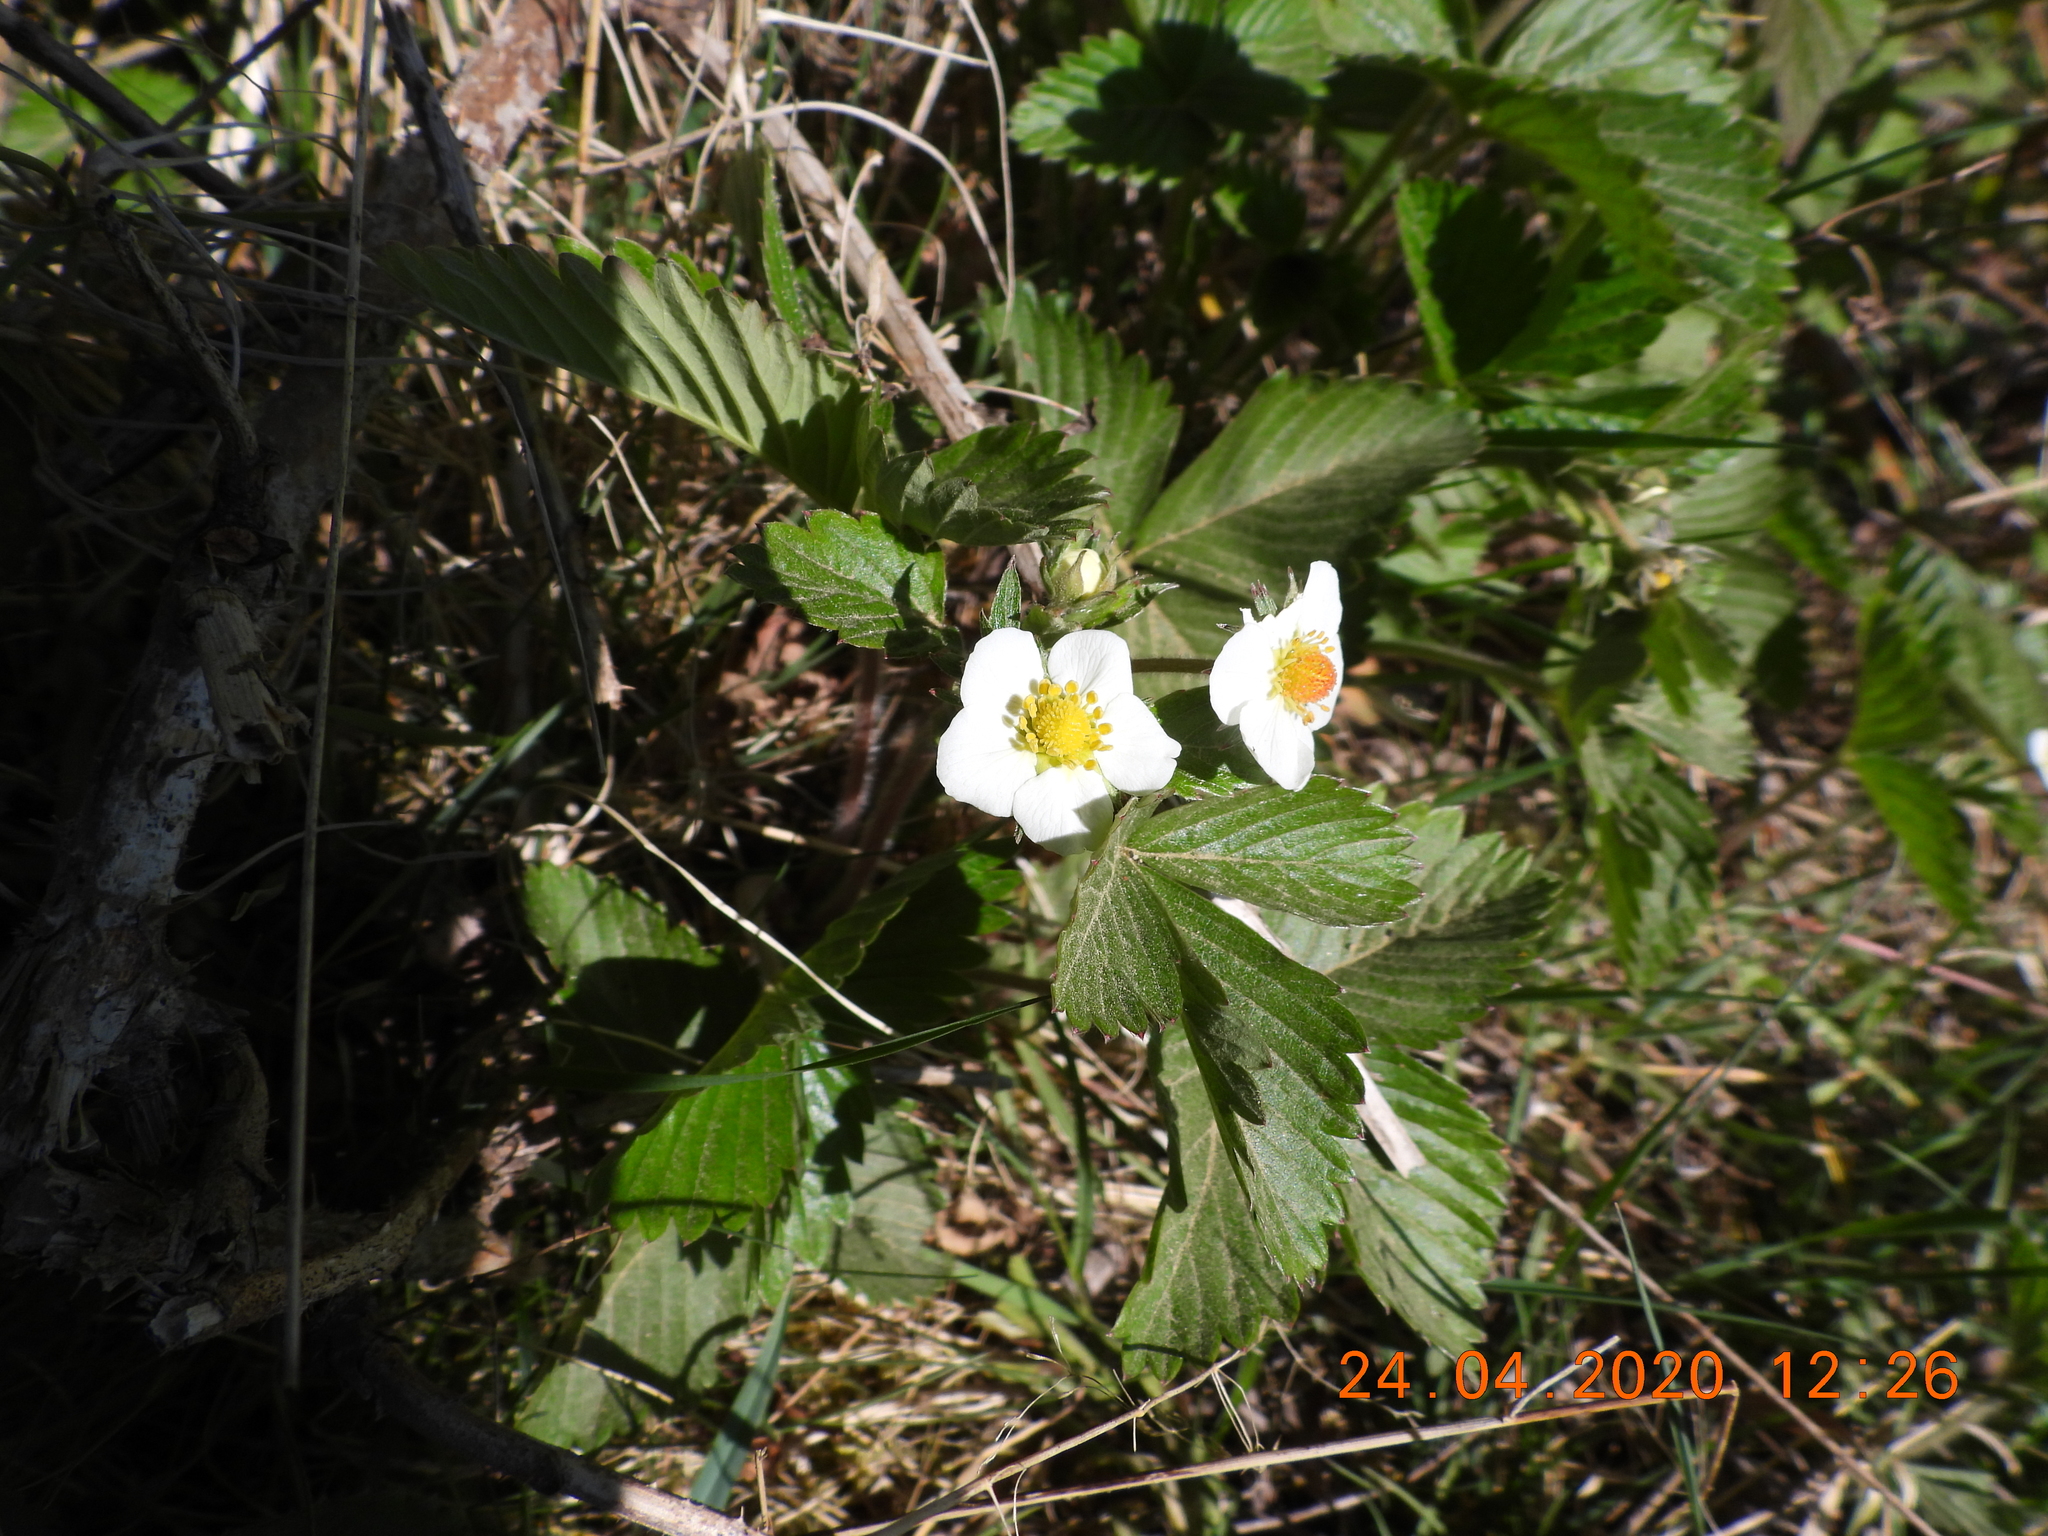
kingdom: Plantae
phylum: Tracheophyta
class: Magnoliopsida
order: Rosales
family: Rosaceae
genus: Fragaria
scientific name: Fragaria vesca
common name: Wild strawberry
